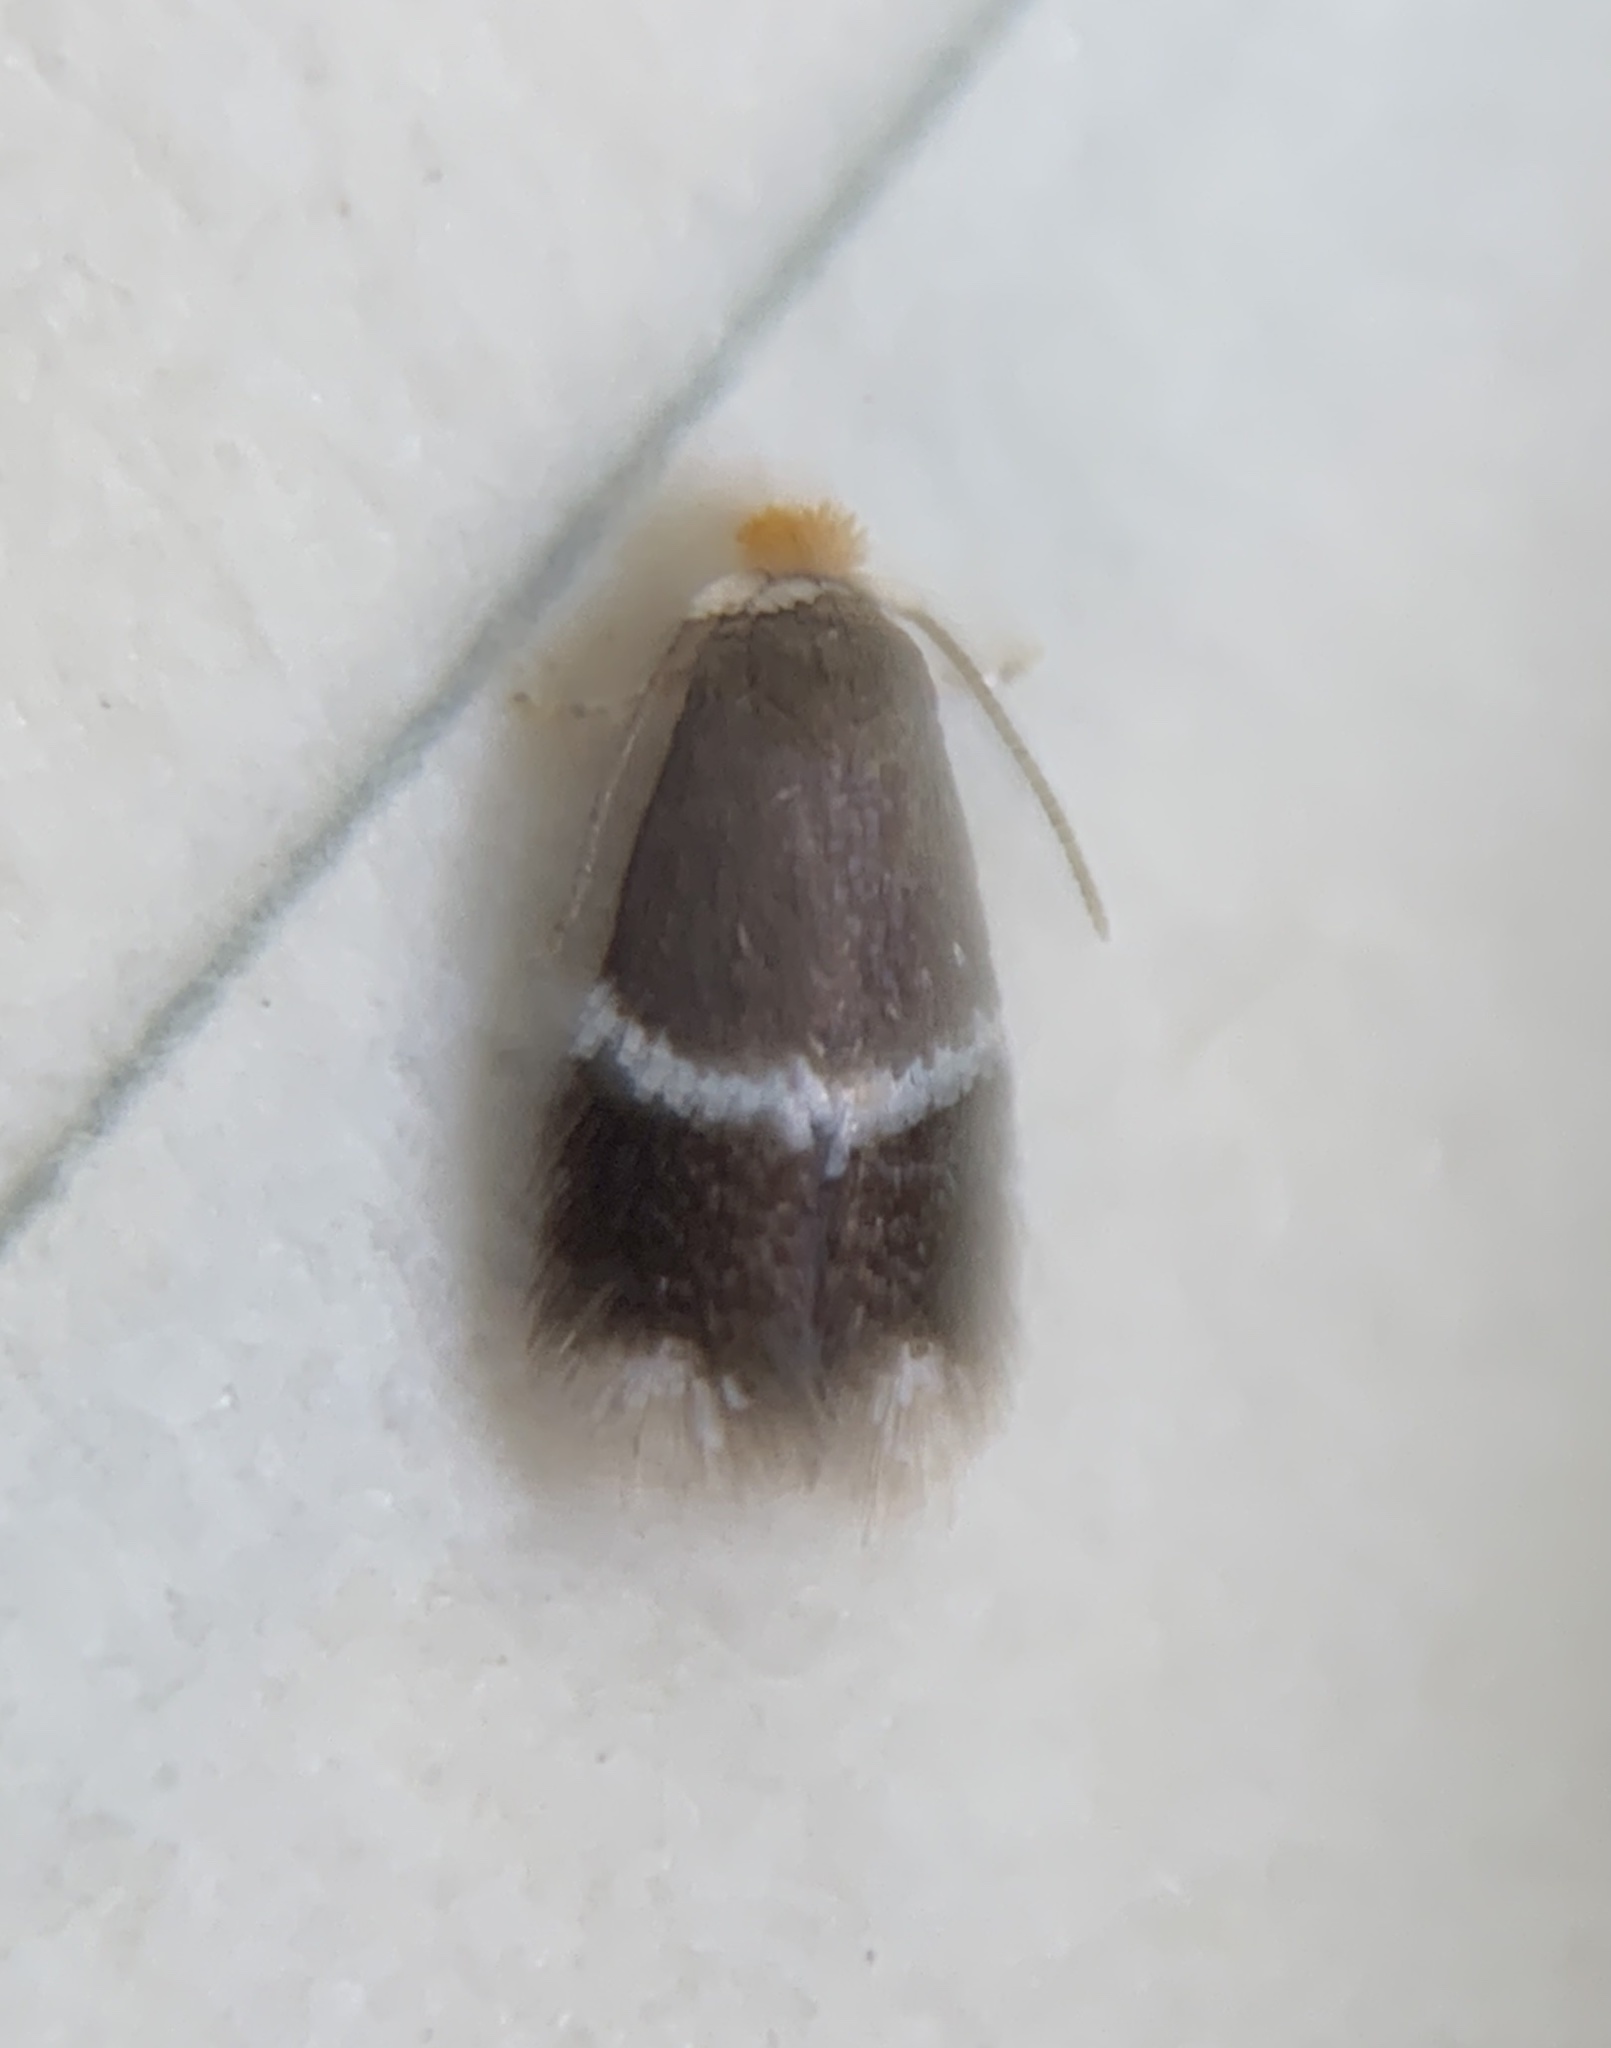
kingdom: Animalia
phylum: Arthropoda
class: Insecta
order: Lepidoptera
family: Nepticulidae
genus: Stigmella
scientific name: Stigmella apicialbella
